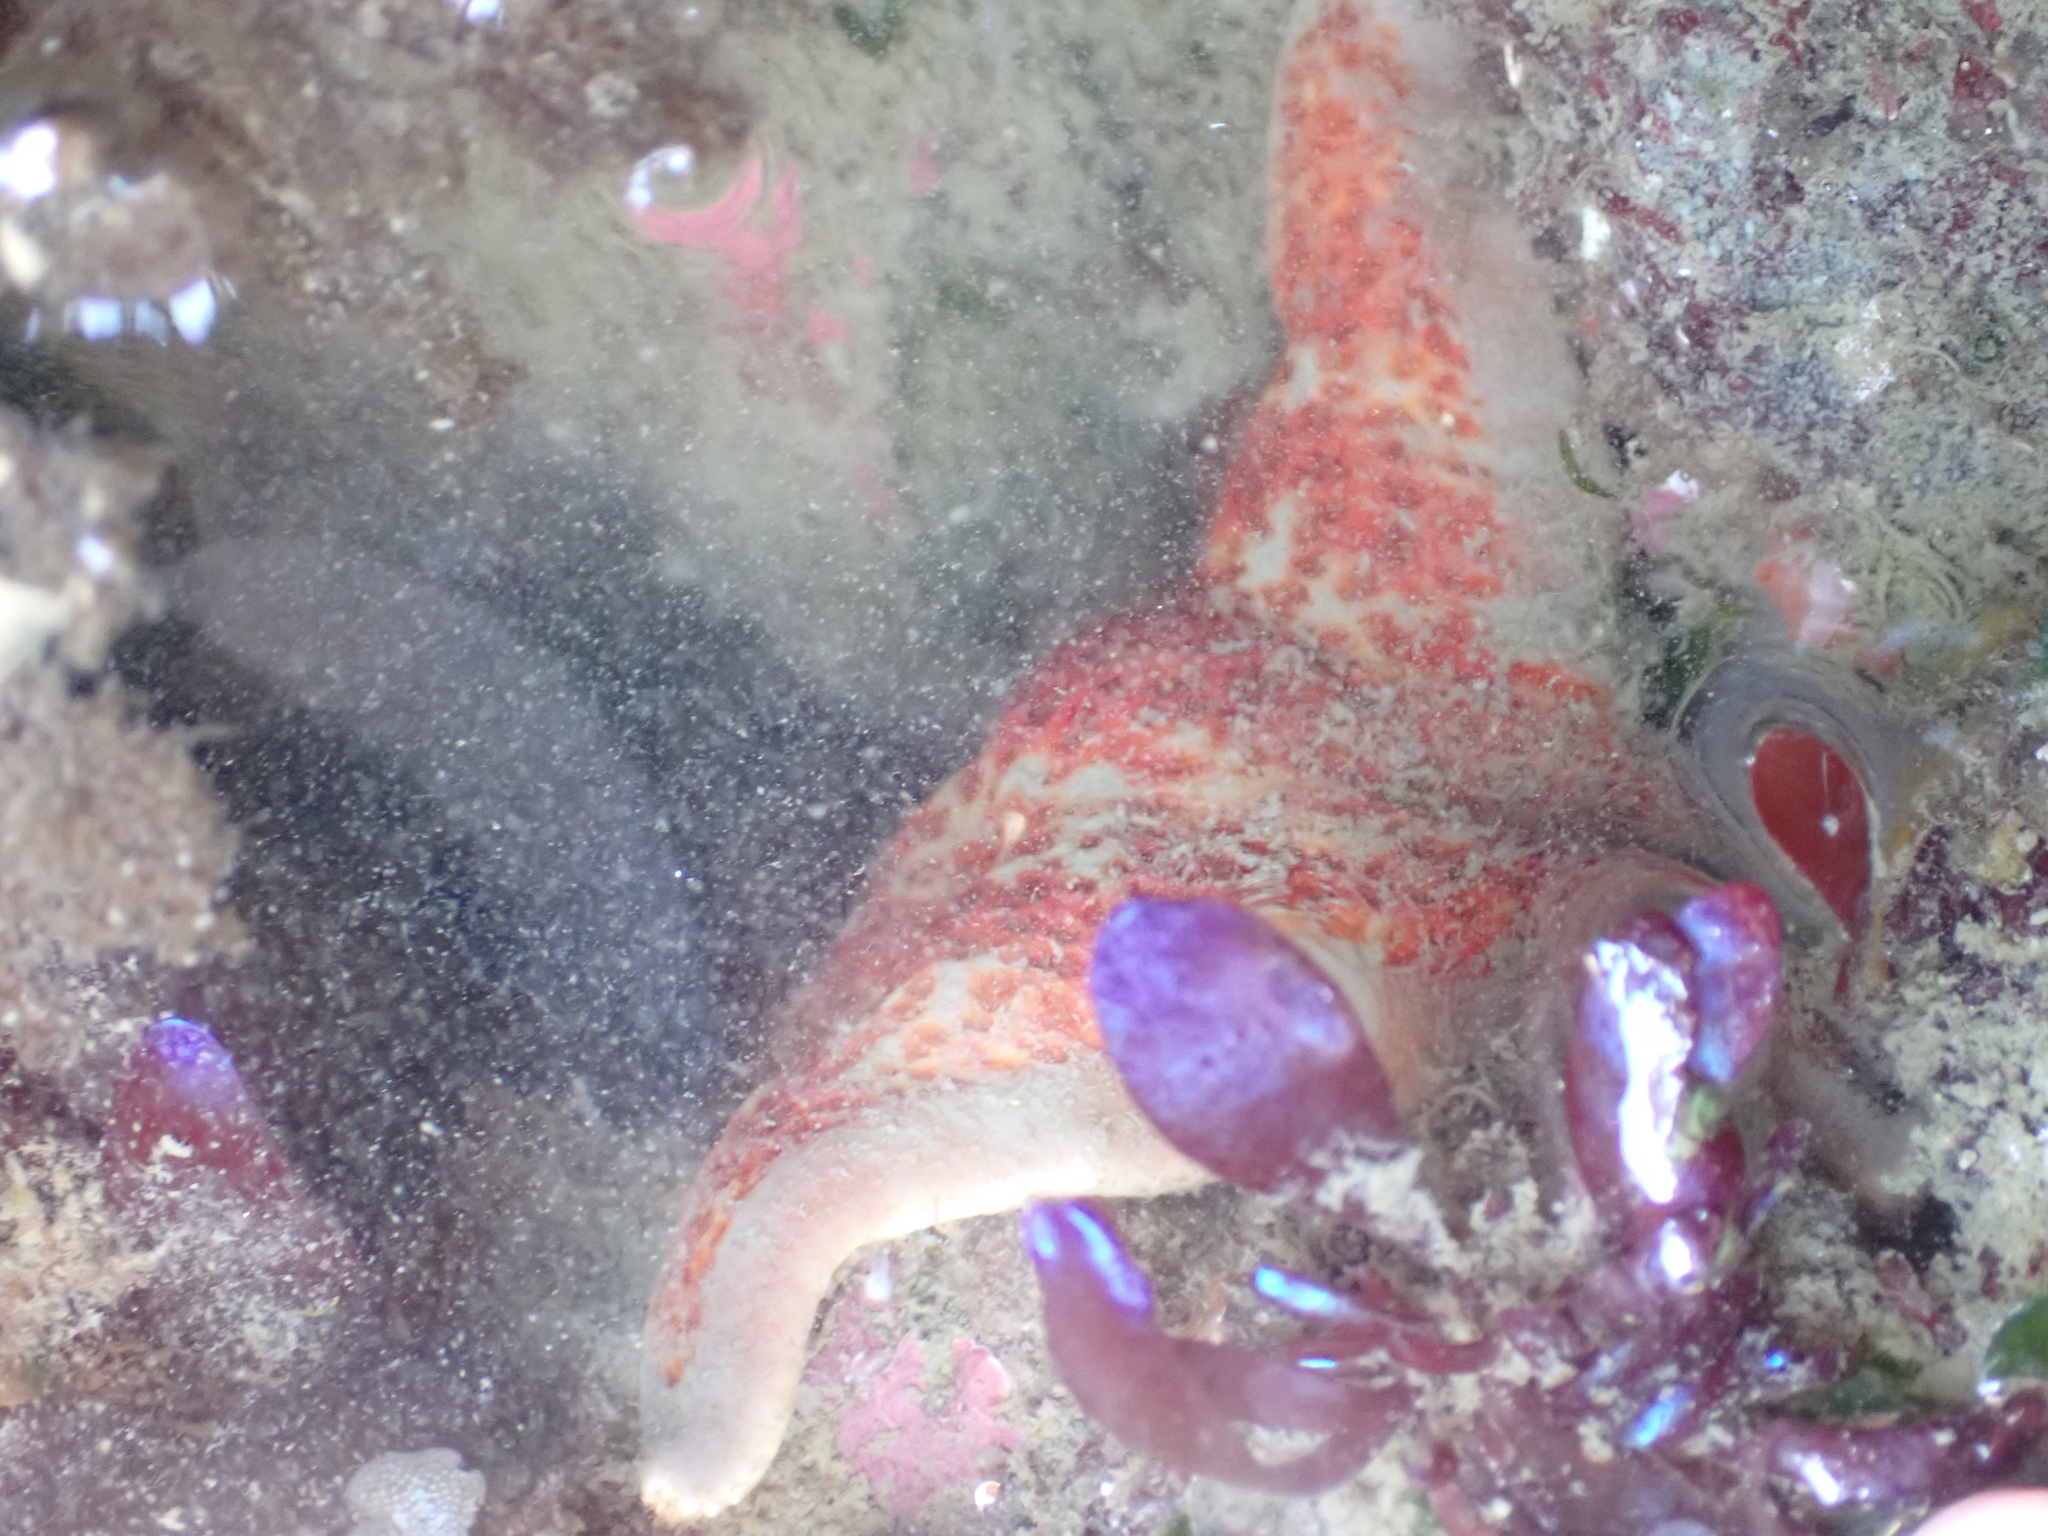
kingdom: Animalia
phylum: Echinodermata
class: Asteroidea
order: Valvatida
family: Asteropseidae
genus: Dermasterias
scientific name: Dermasterias imbricata
